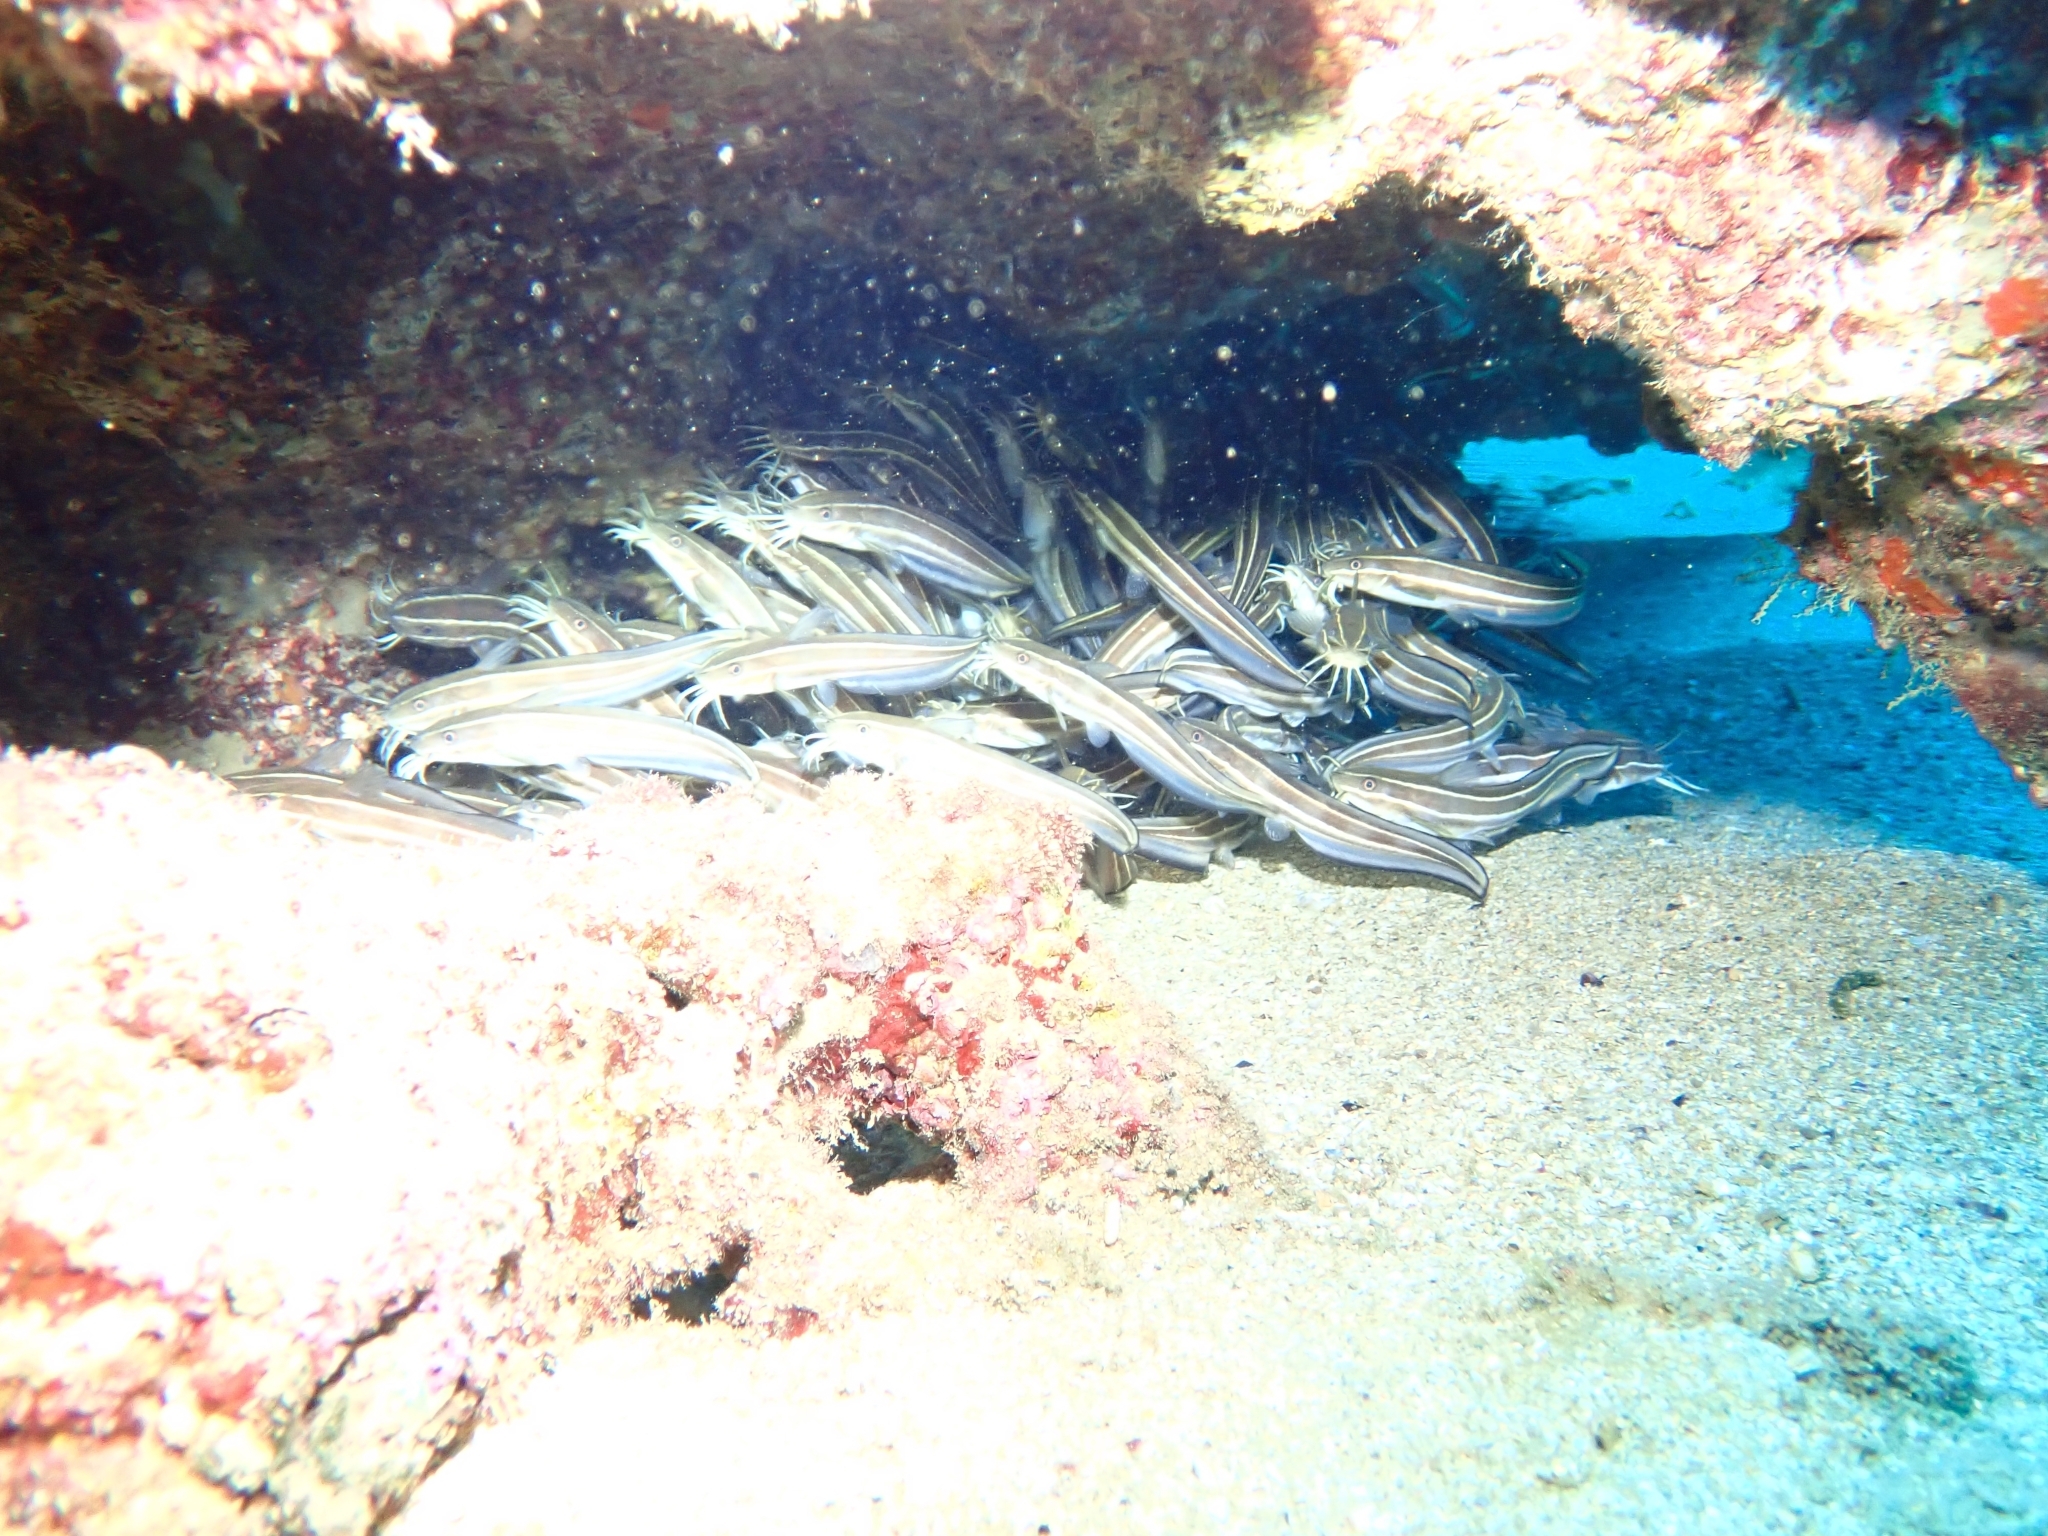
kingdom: Animalia
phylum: Chordata
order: Siluriformes
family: Plotosidae
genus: Plotosus
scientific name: Plotosus lineatus
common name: Striped eel catfish
